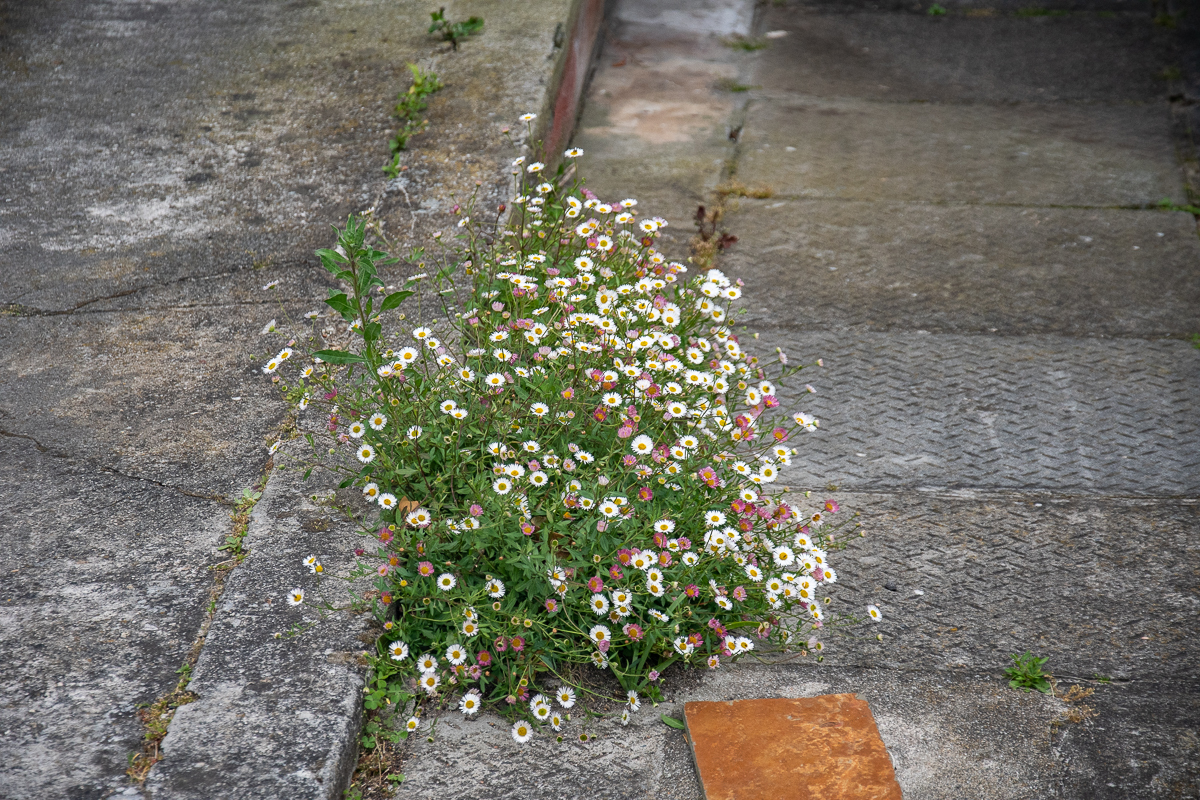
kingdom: Plantae
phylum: Tracheophyta
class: Magnoliopsida
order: Asterales
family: Asteraceae
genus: Erigeron
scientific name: Erigeron karvinskianus
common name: Mexican fleabane
